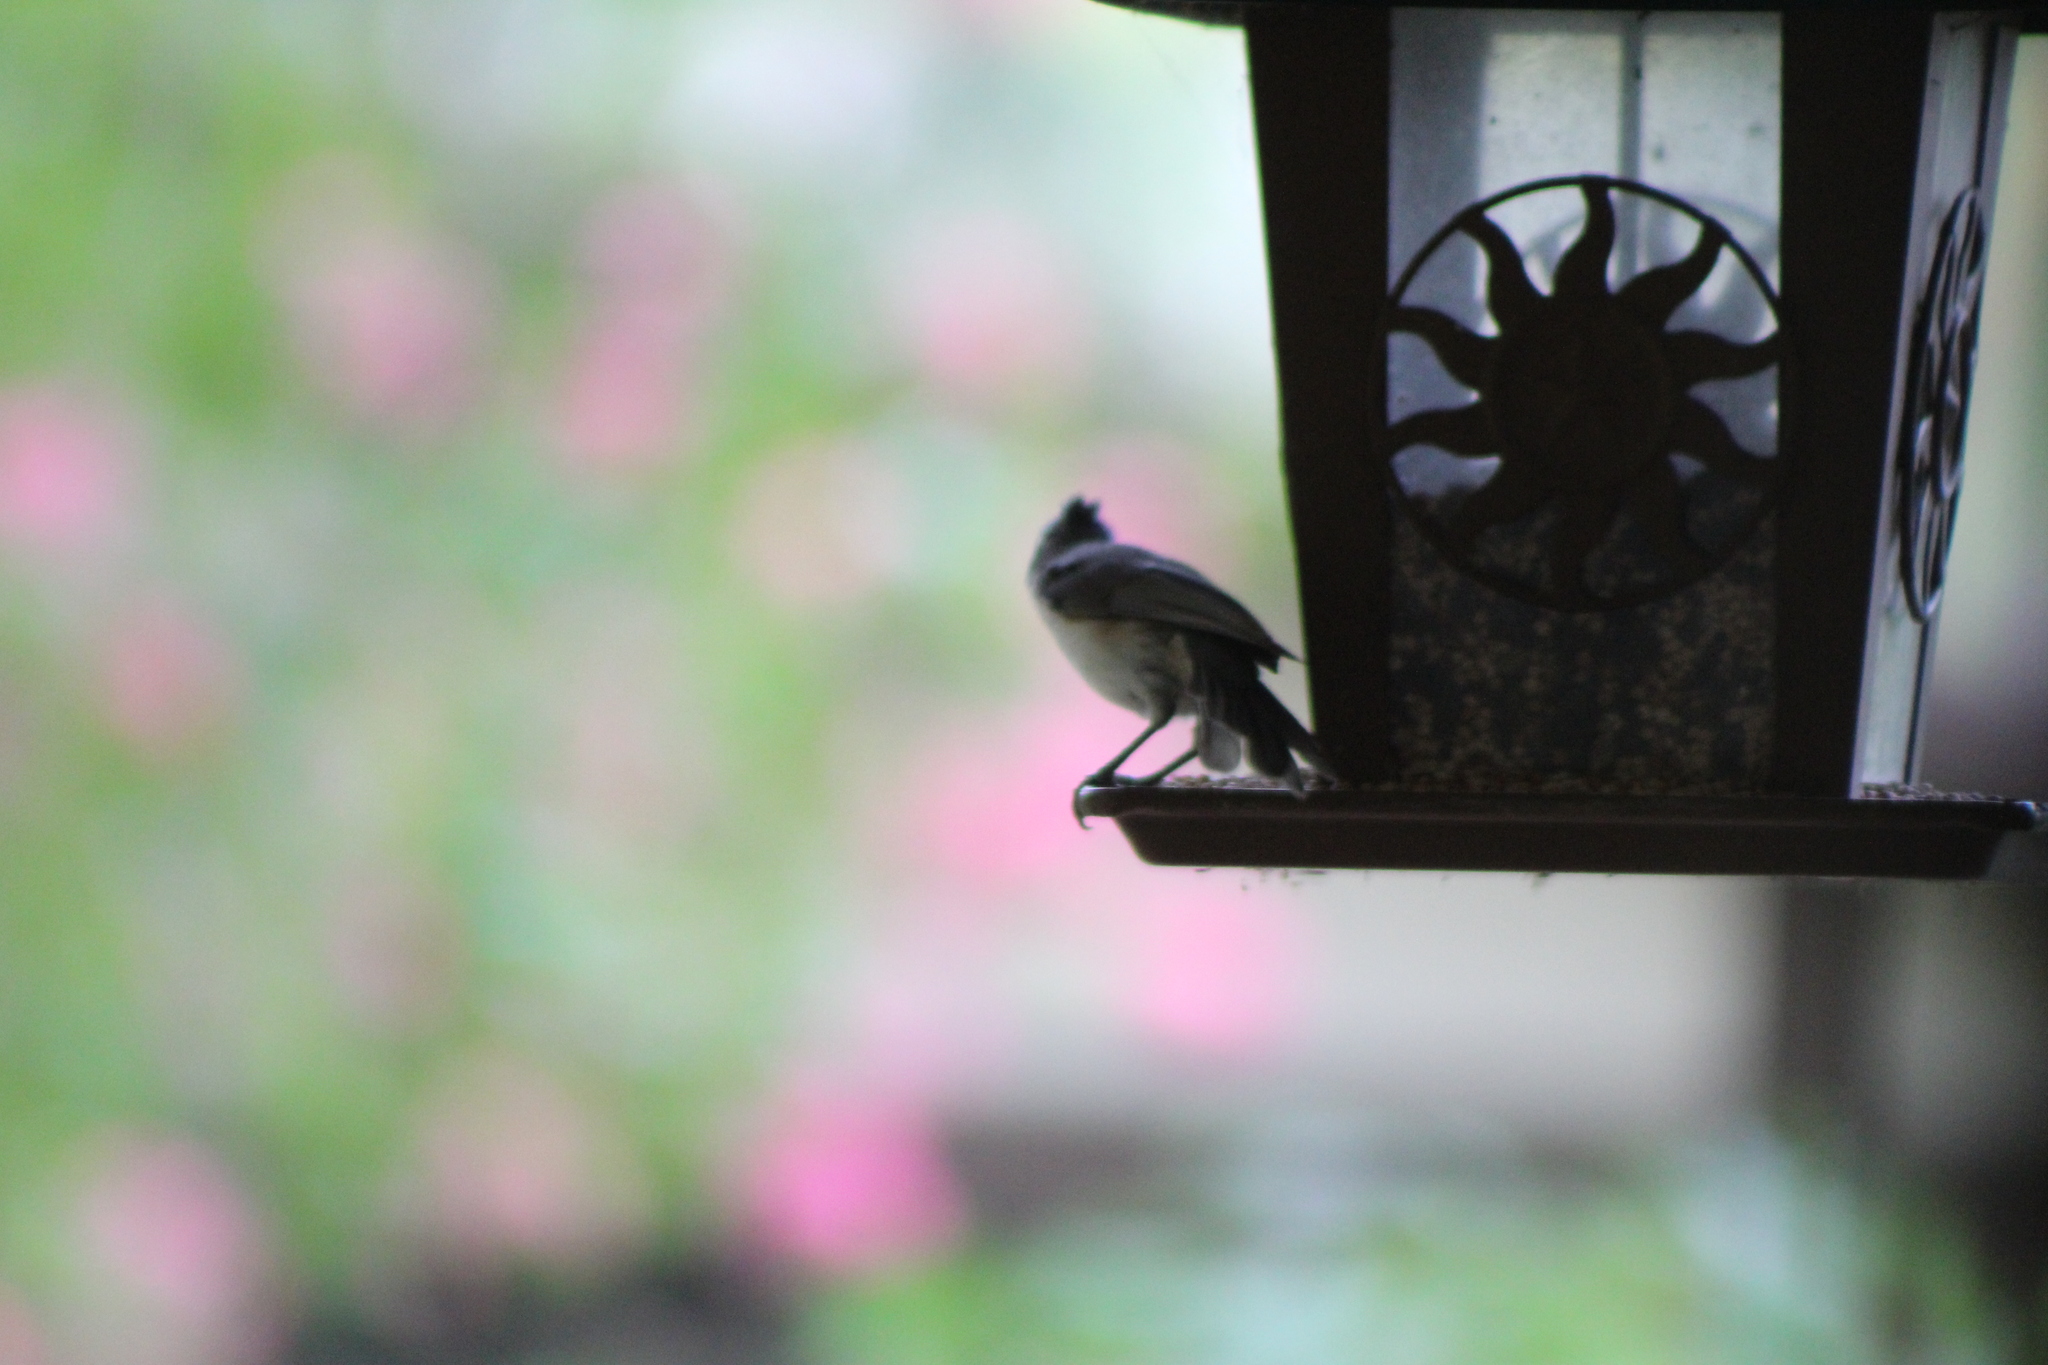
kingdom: Animalia
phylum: Chordata
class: Aves
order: Passeriformes
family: Paridae
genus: Baeolophus
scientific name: Baeolophus bicolor
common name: Tufted titmouse
